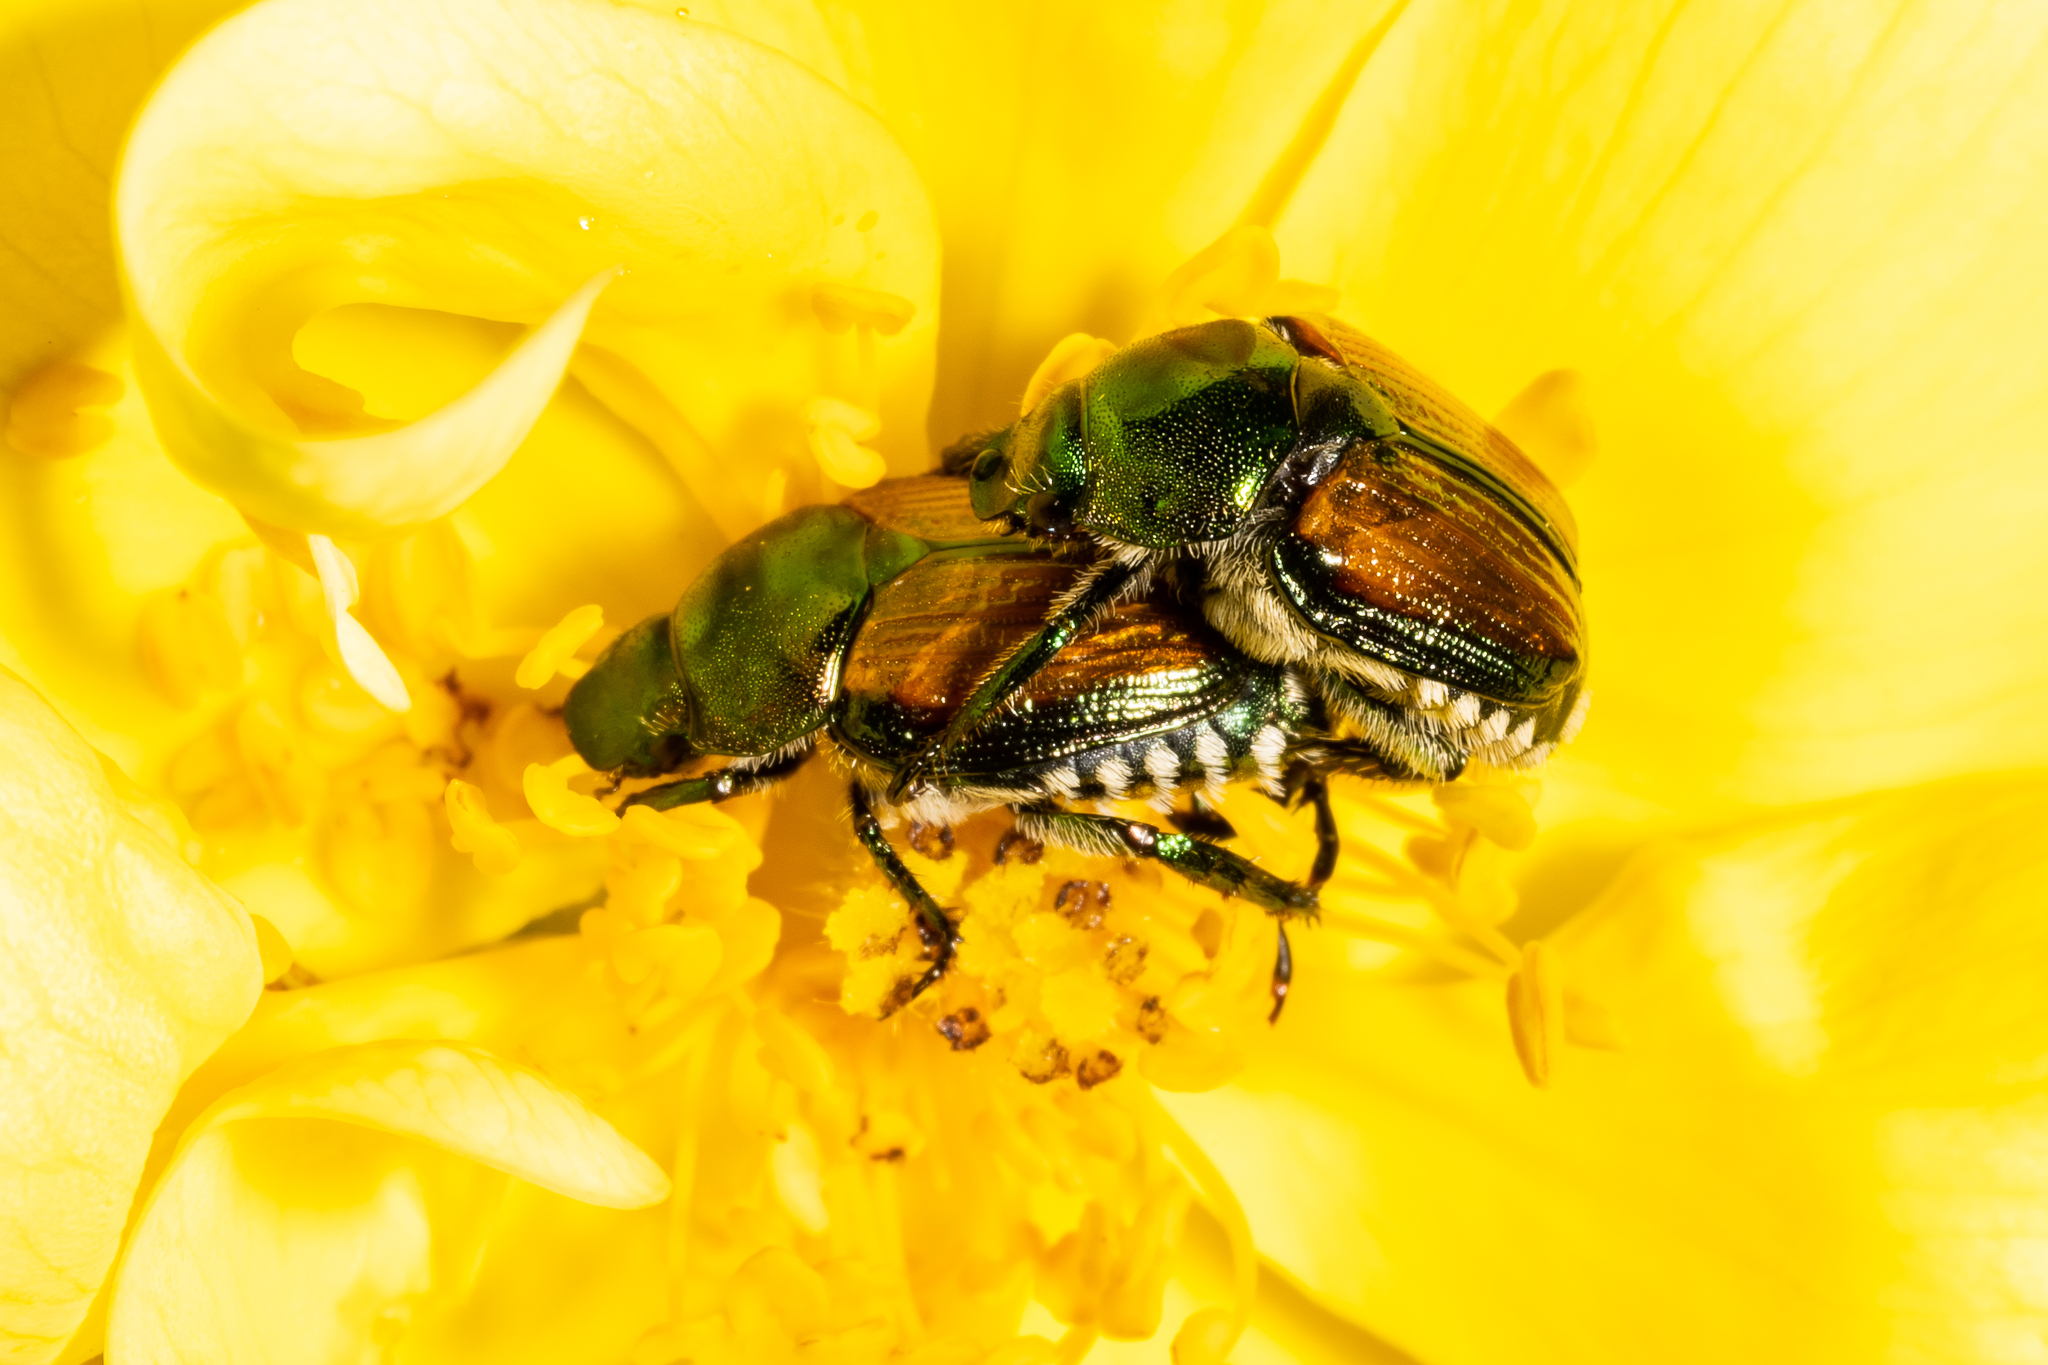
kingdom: Animalia
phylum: Arthropoda
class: Insecta
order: Coleoptera
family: Scarabaeidae
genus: Popillia
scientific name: Popillia japonica
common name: Japanese beetle
